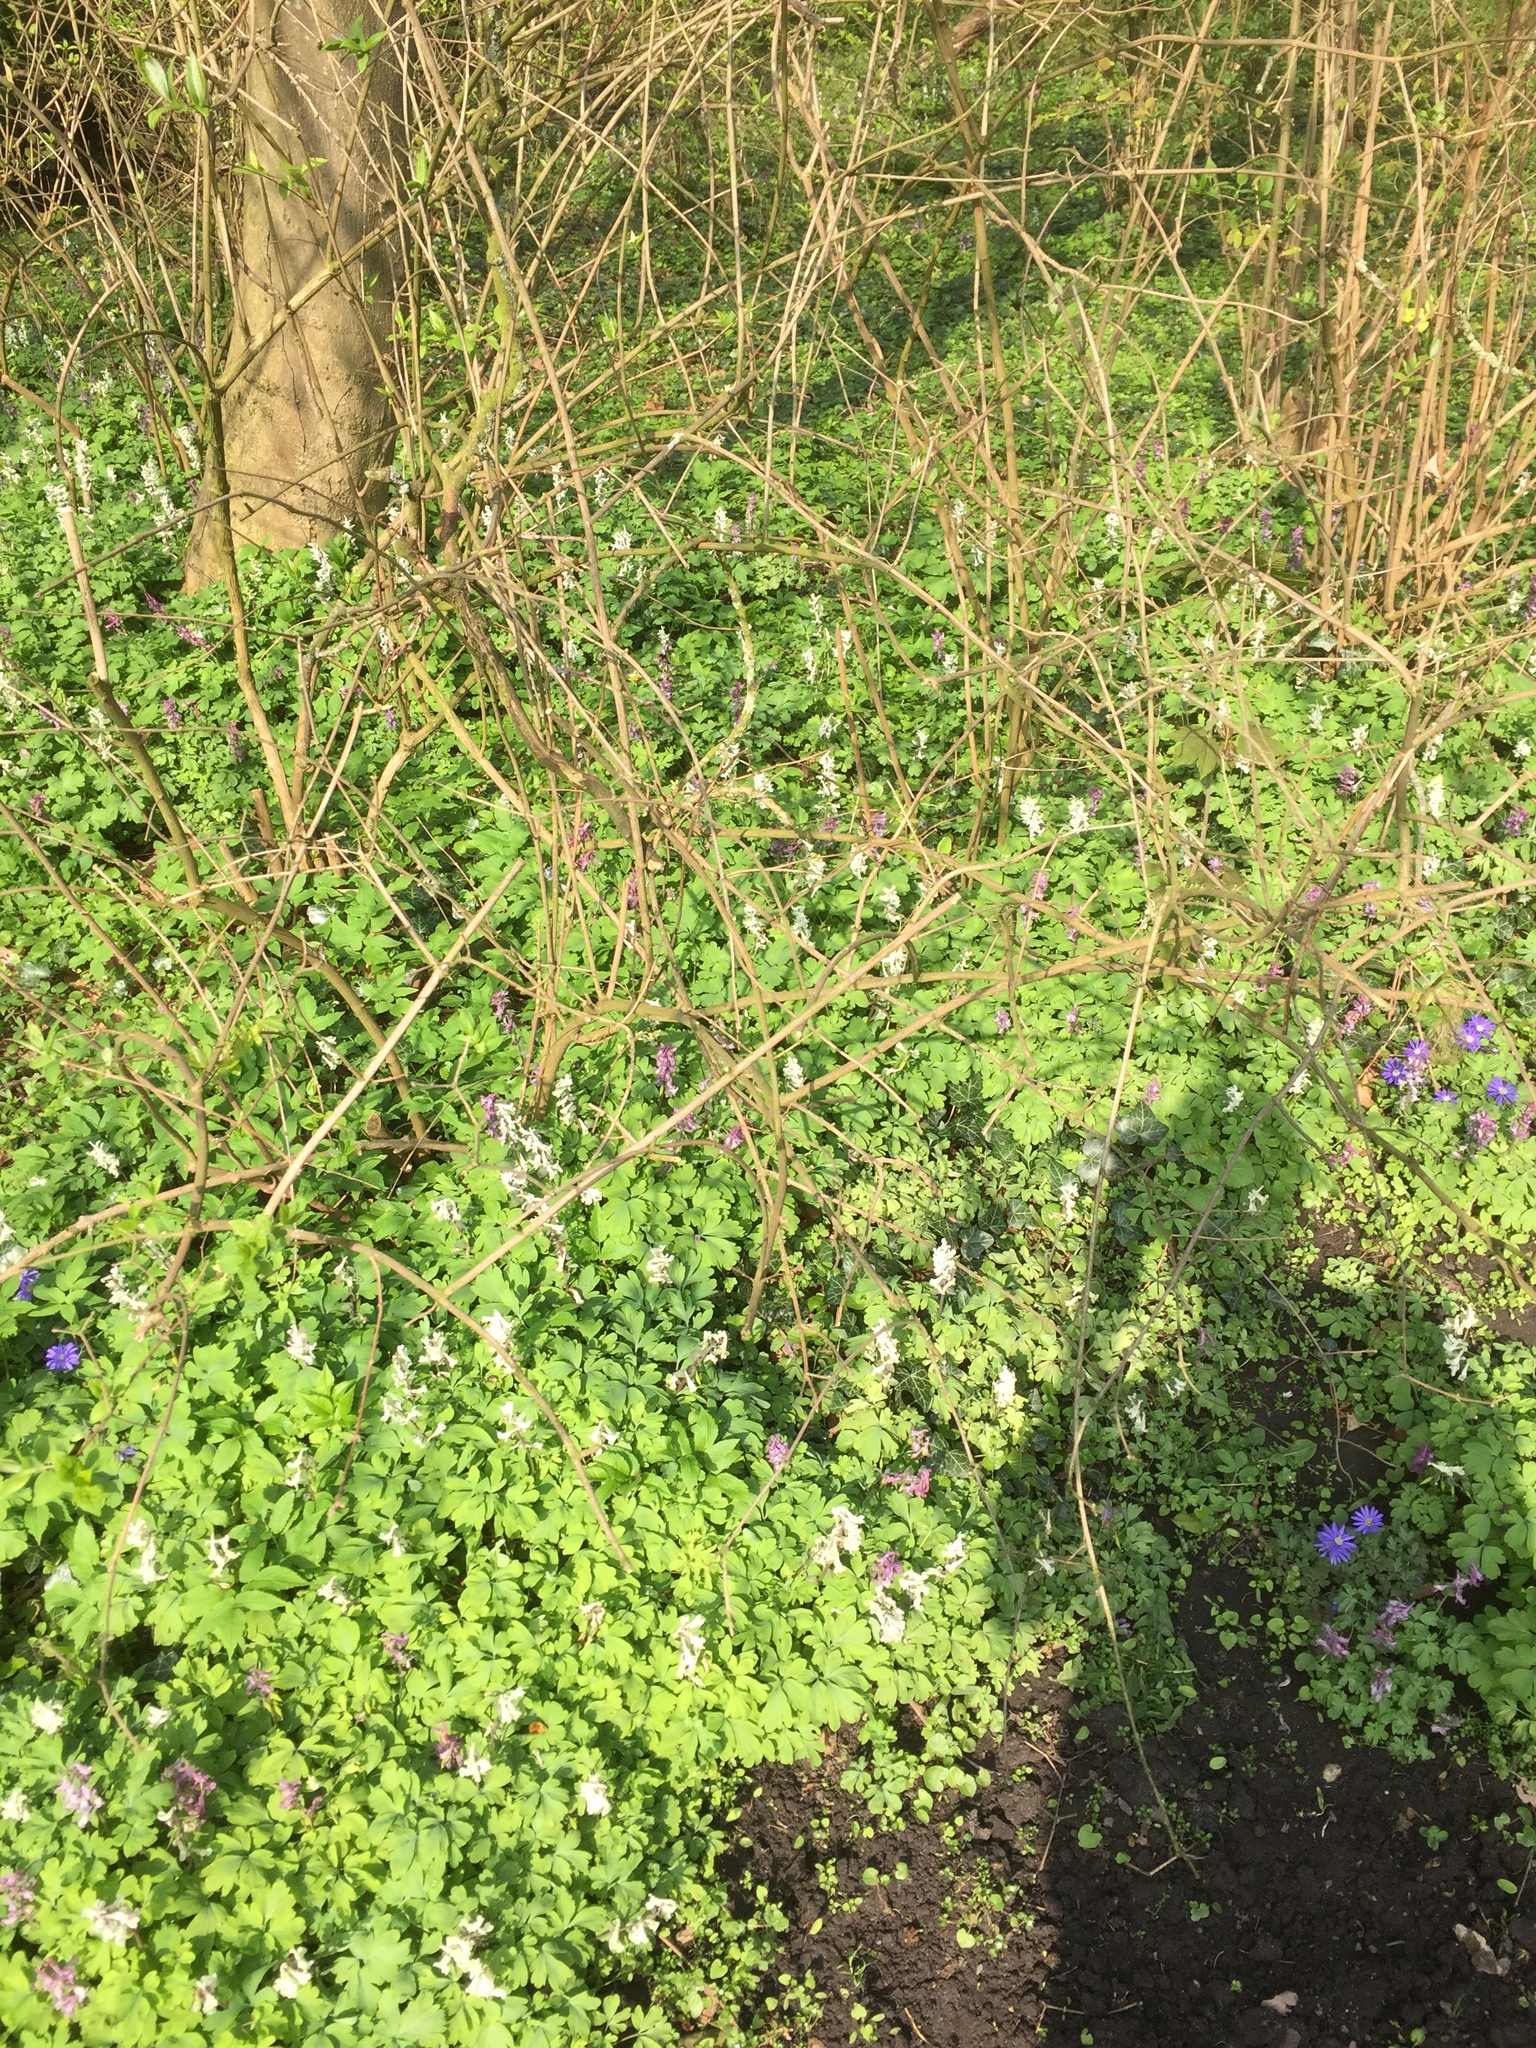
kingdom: Plantae
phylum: Tracheophyta
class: Magnoliopsida
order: Ranunculales
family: Papaveraceae
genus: Corydalis
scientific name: Corydalis cava
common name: Hollowroot
